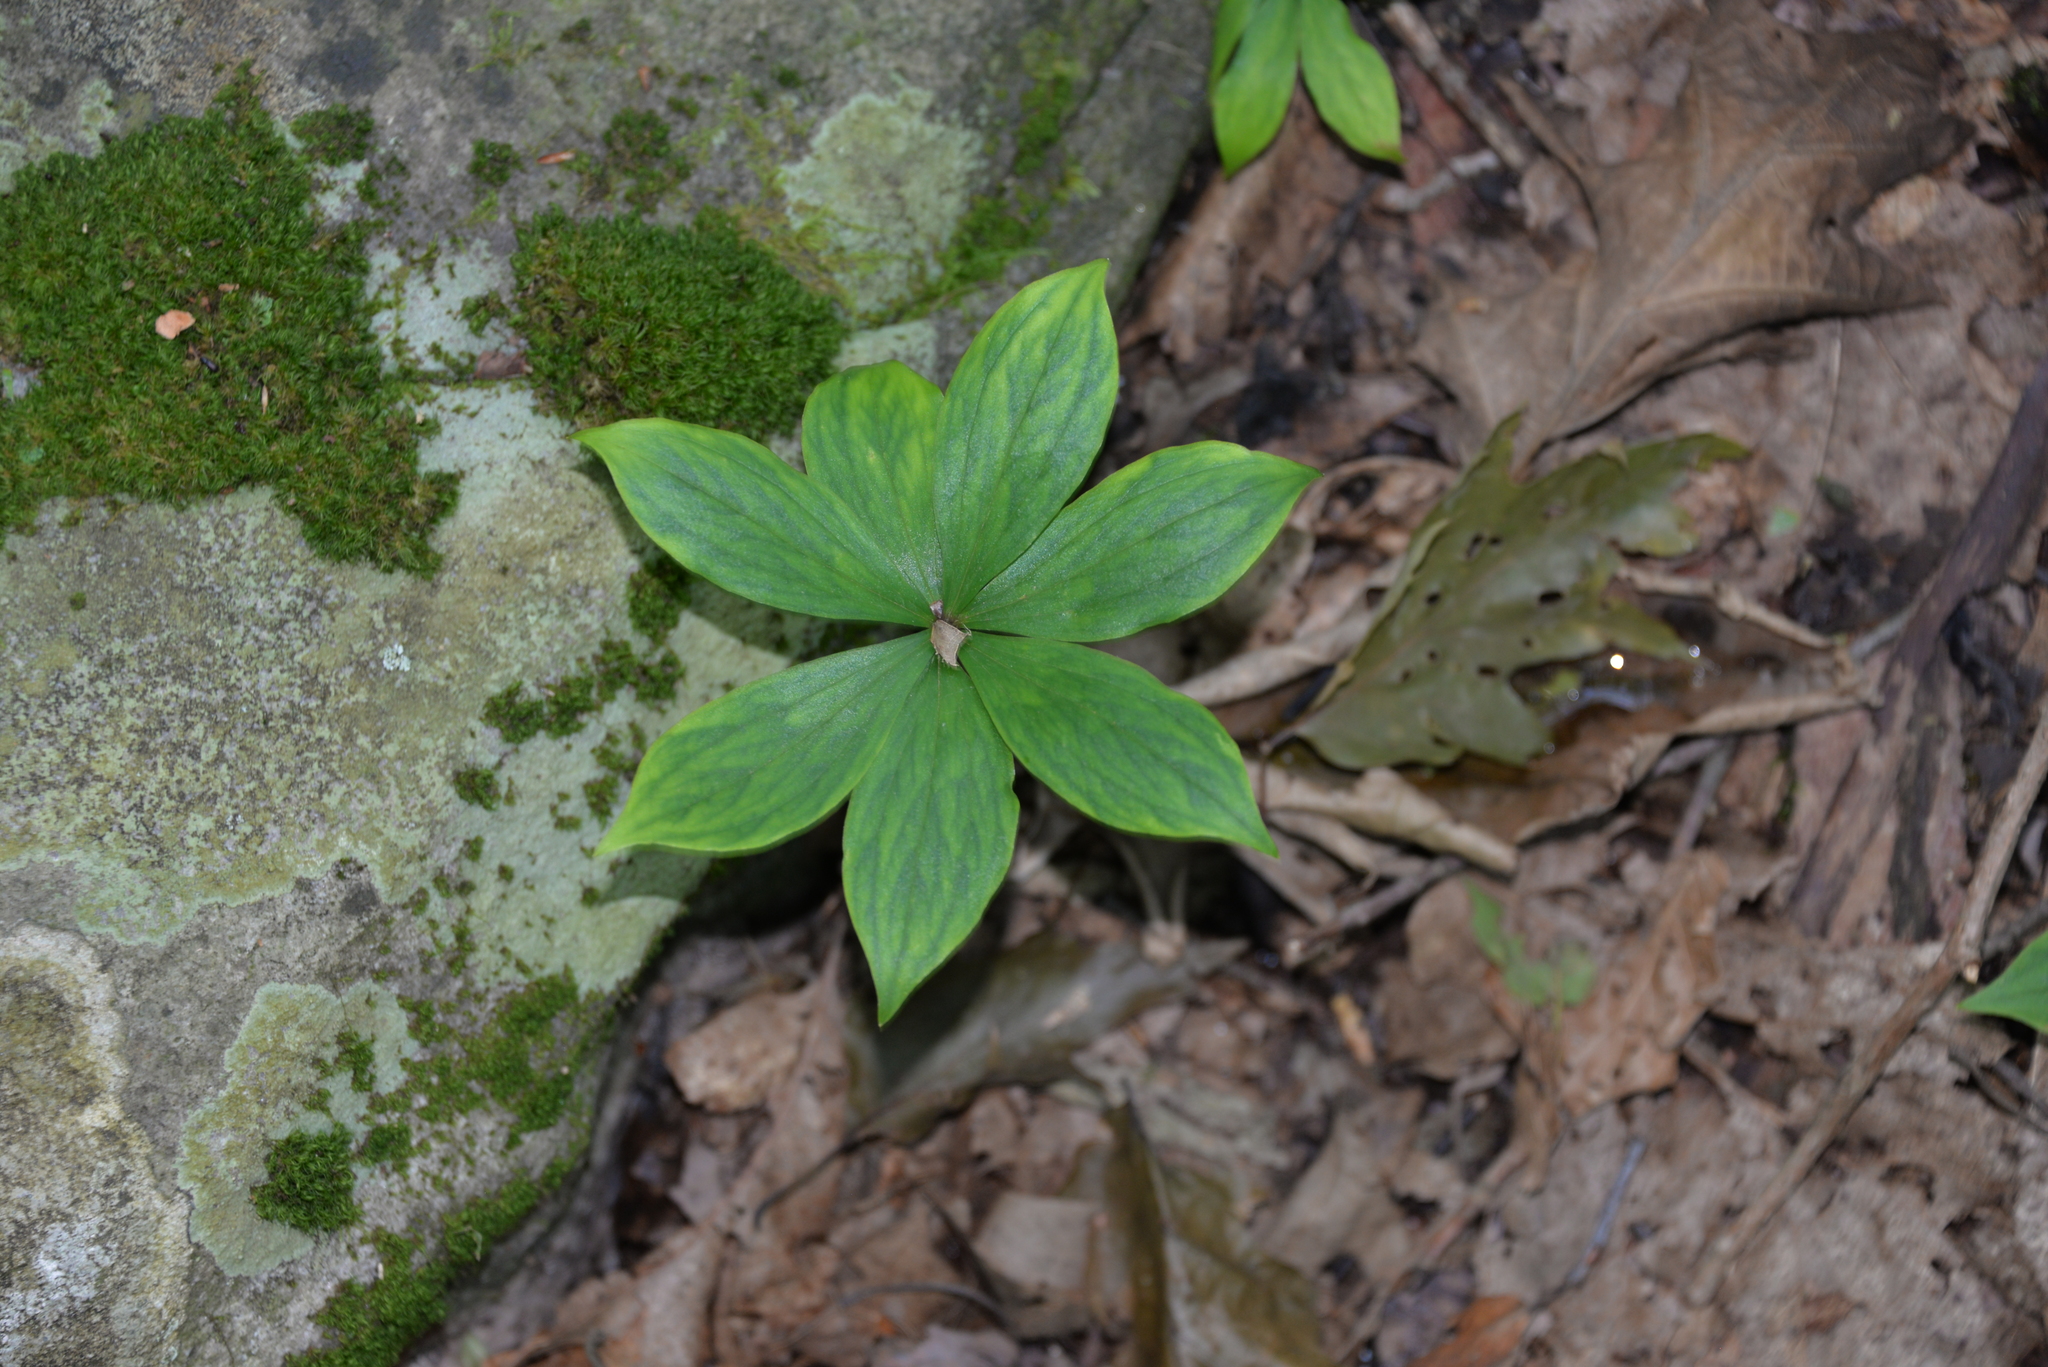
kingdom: Plantae
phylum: Tracheophyta
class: Liliopsida
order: Liliales
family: Liliaceae
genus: Medeola
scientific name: Medeola virginiana
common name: Indian cucumber-root
